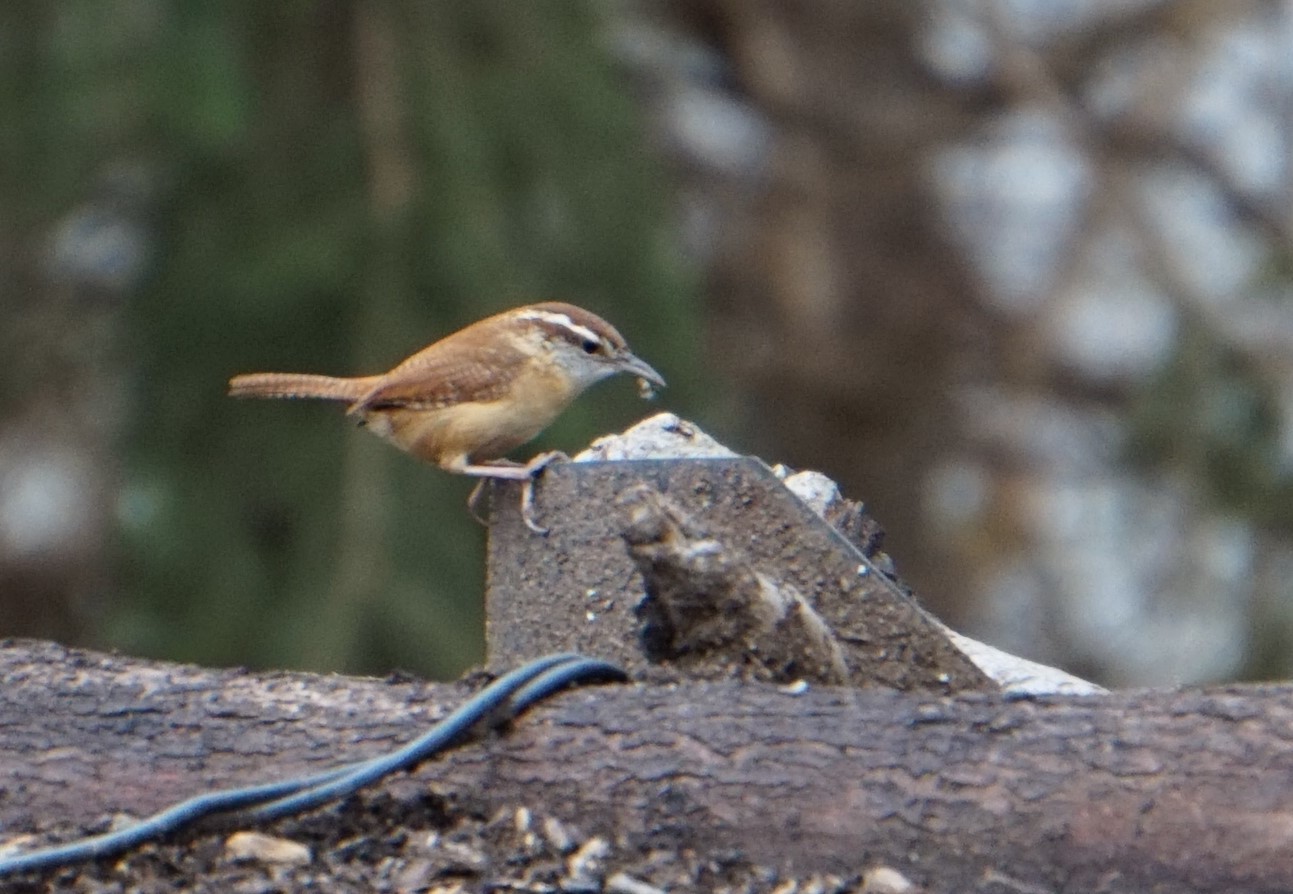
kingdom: Animalia
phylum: Chordata
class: Aves
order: Passeriformes
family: Troglodytidae
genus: Thryothorus
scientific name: Thryothorus ludovicianus
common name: Carolina wren
